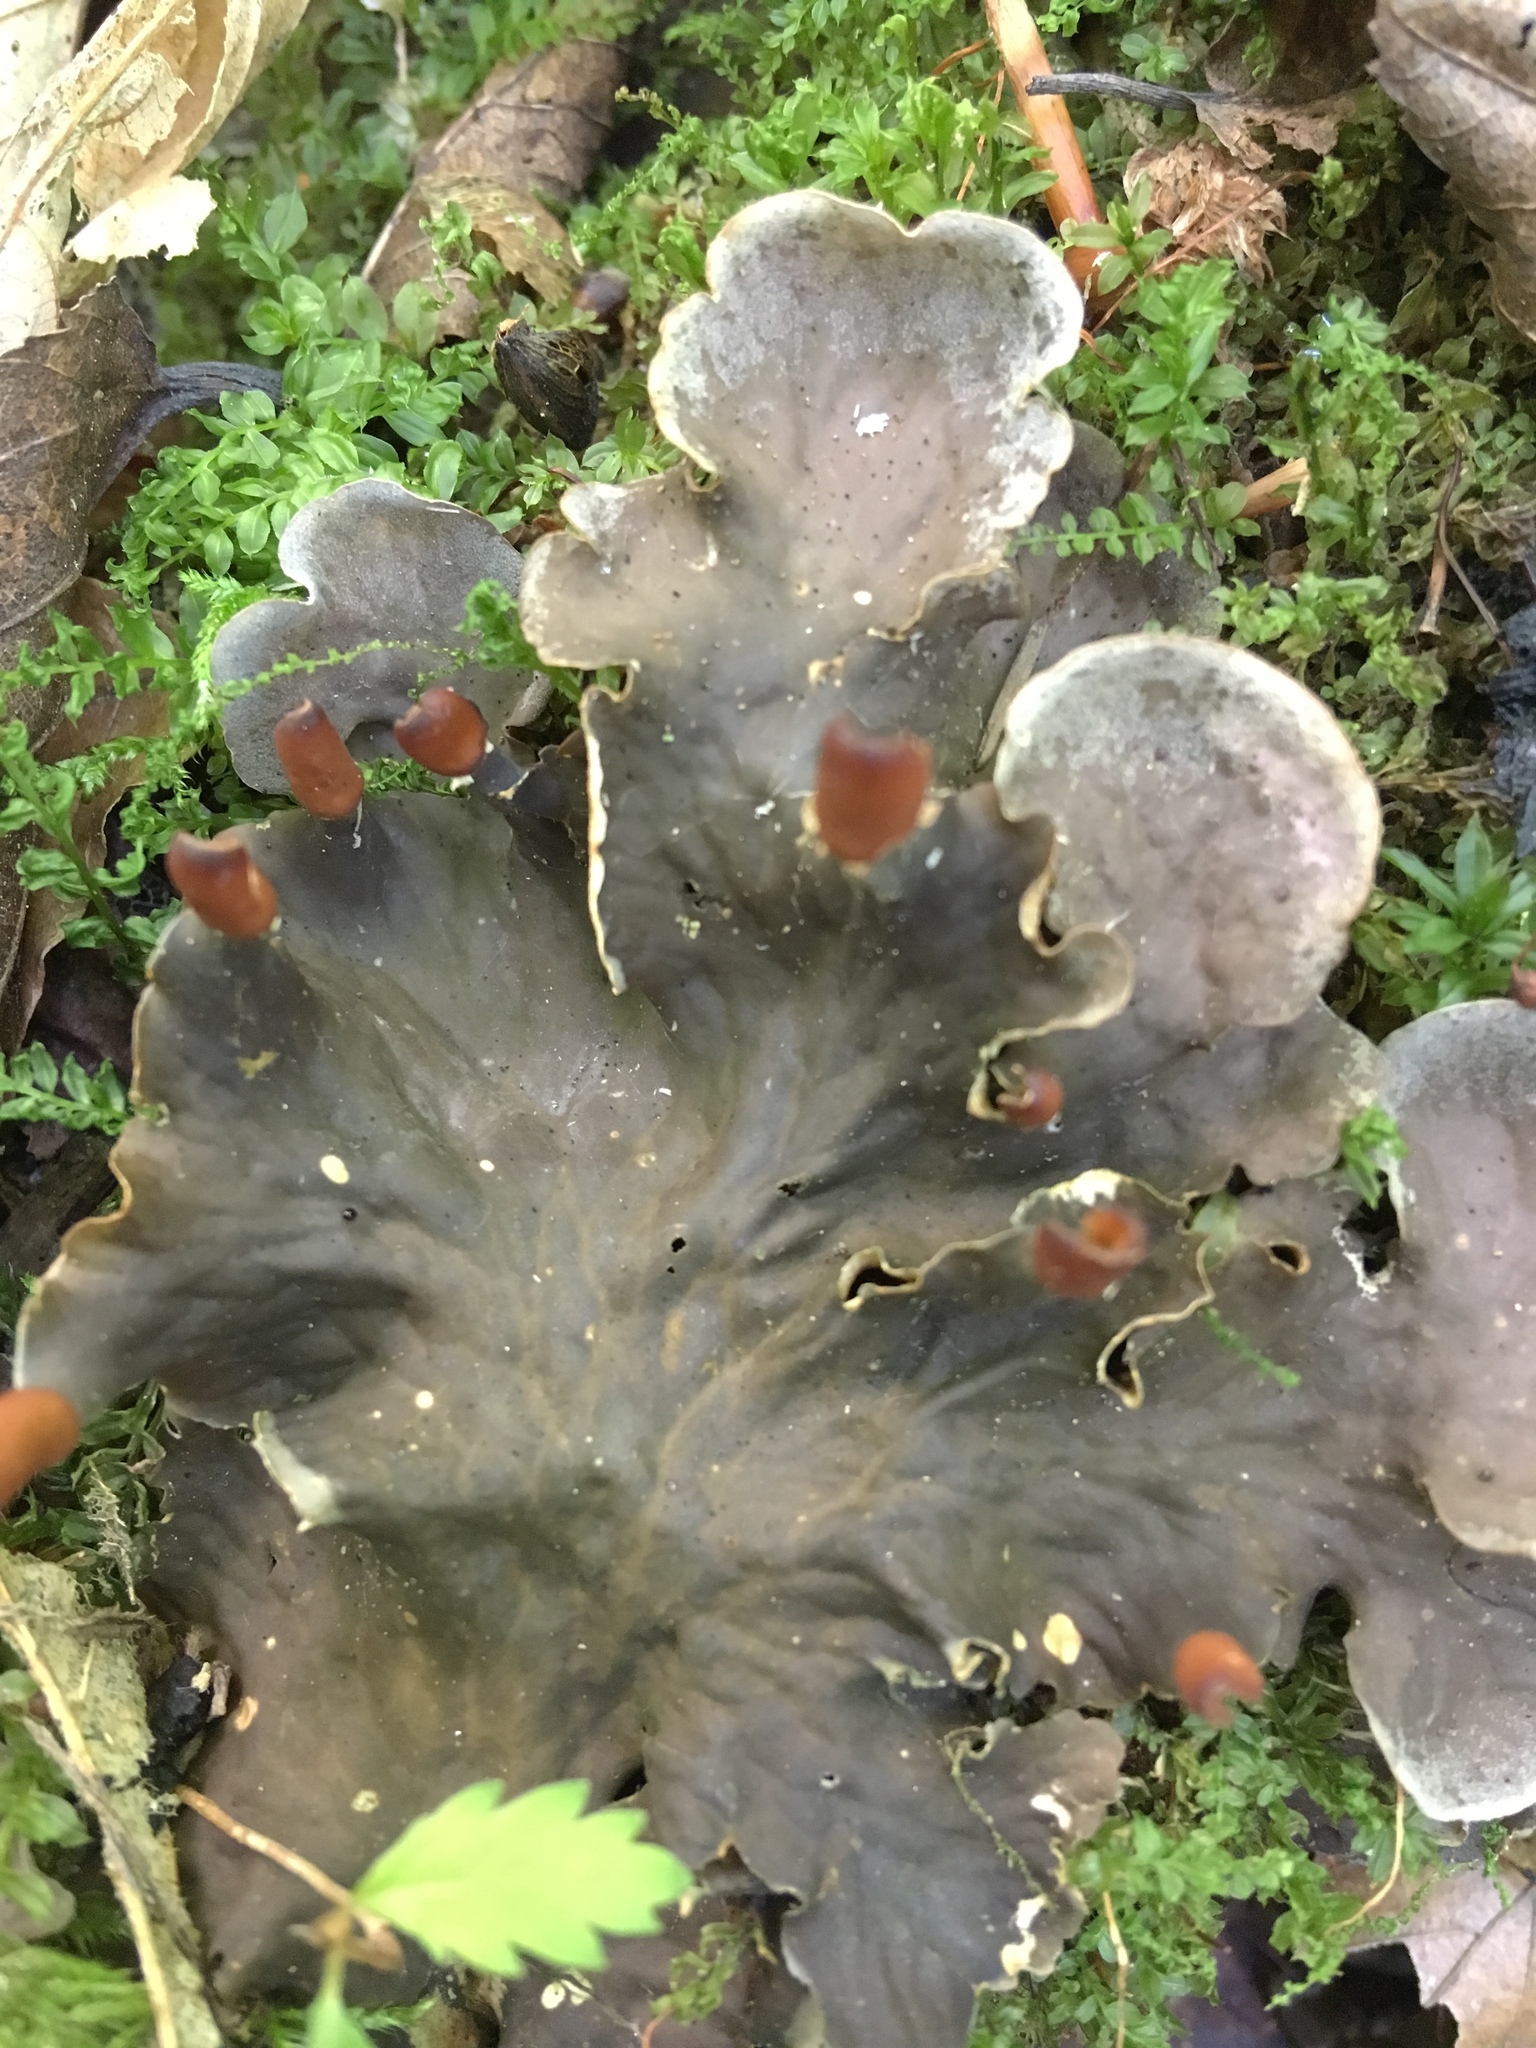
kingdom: Fungi
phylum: Ascomycota
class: Lecanoromycetes
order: Peltigerales
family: Peltigeraceae
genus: Peltigera
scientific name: Peltigera canina
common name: Dog pelt lichen
